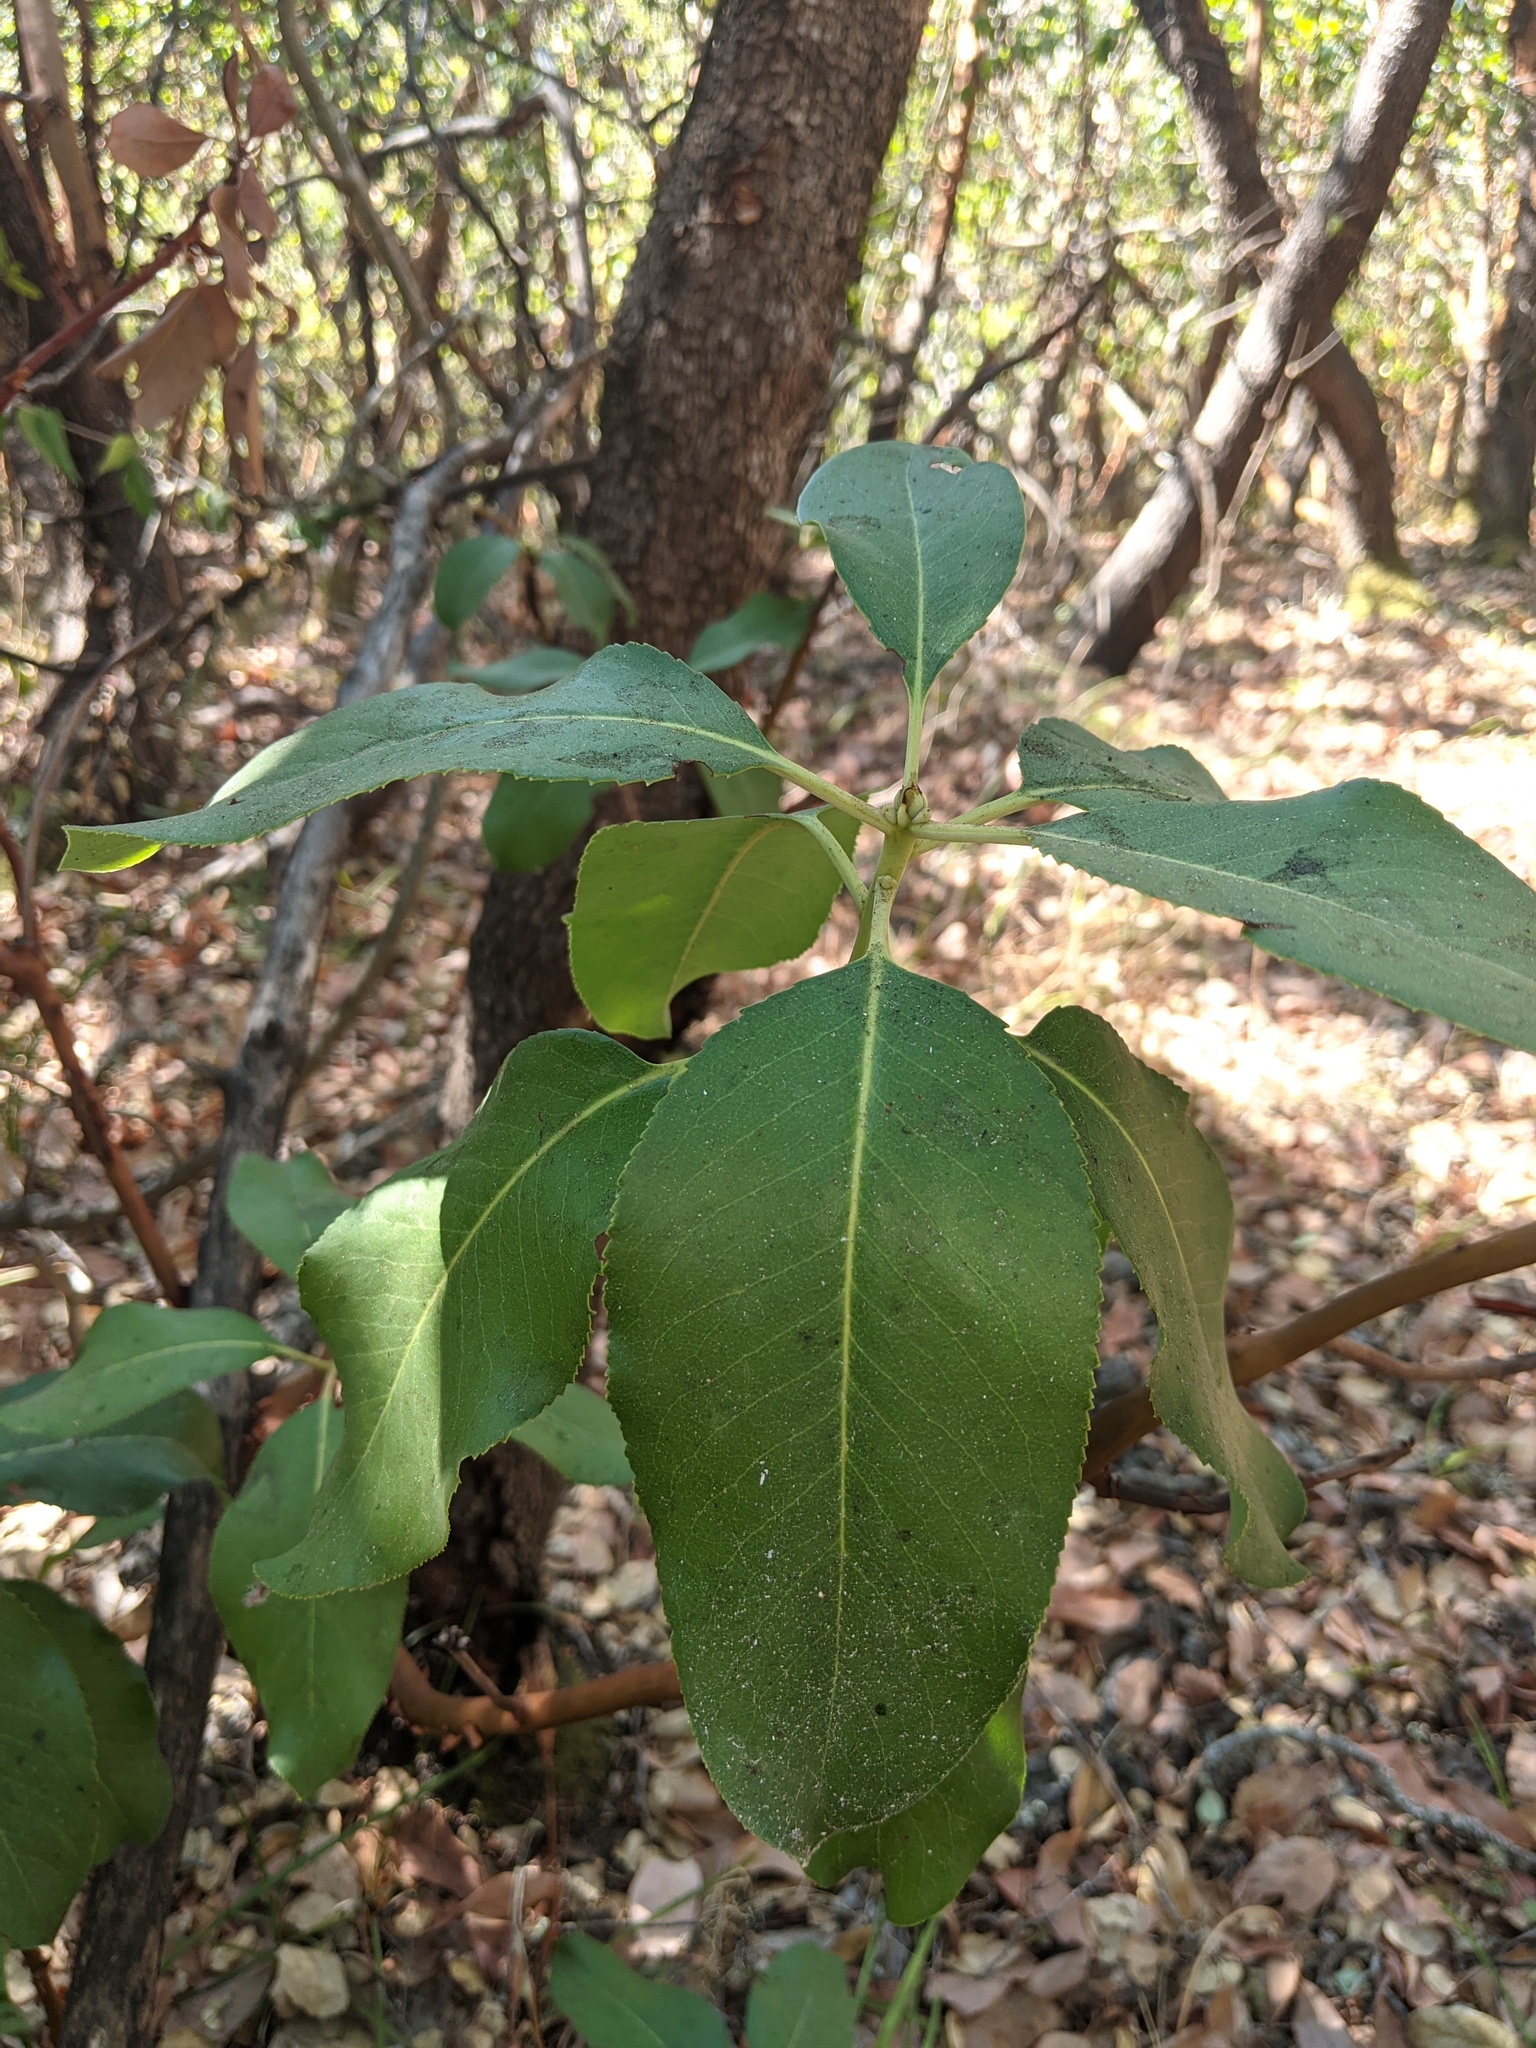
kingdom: Plantae
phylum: Tracheophyta
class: Magnoliopsida
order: Ericales
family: Ericaceae
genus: Arbutus
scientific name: Arbutus menziesii
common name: Pacific madrone
